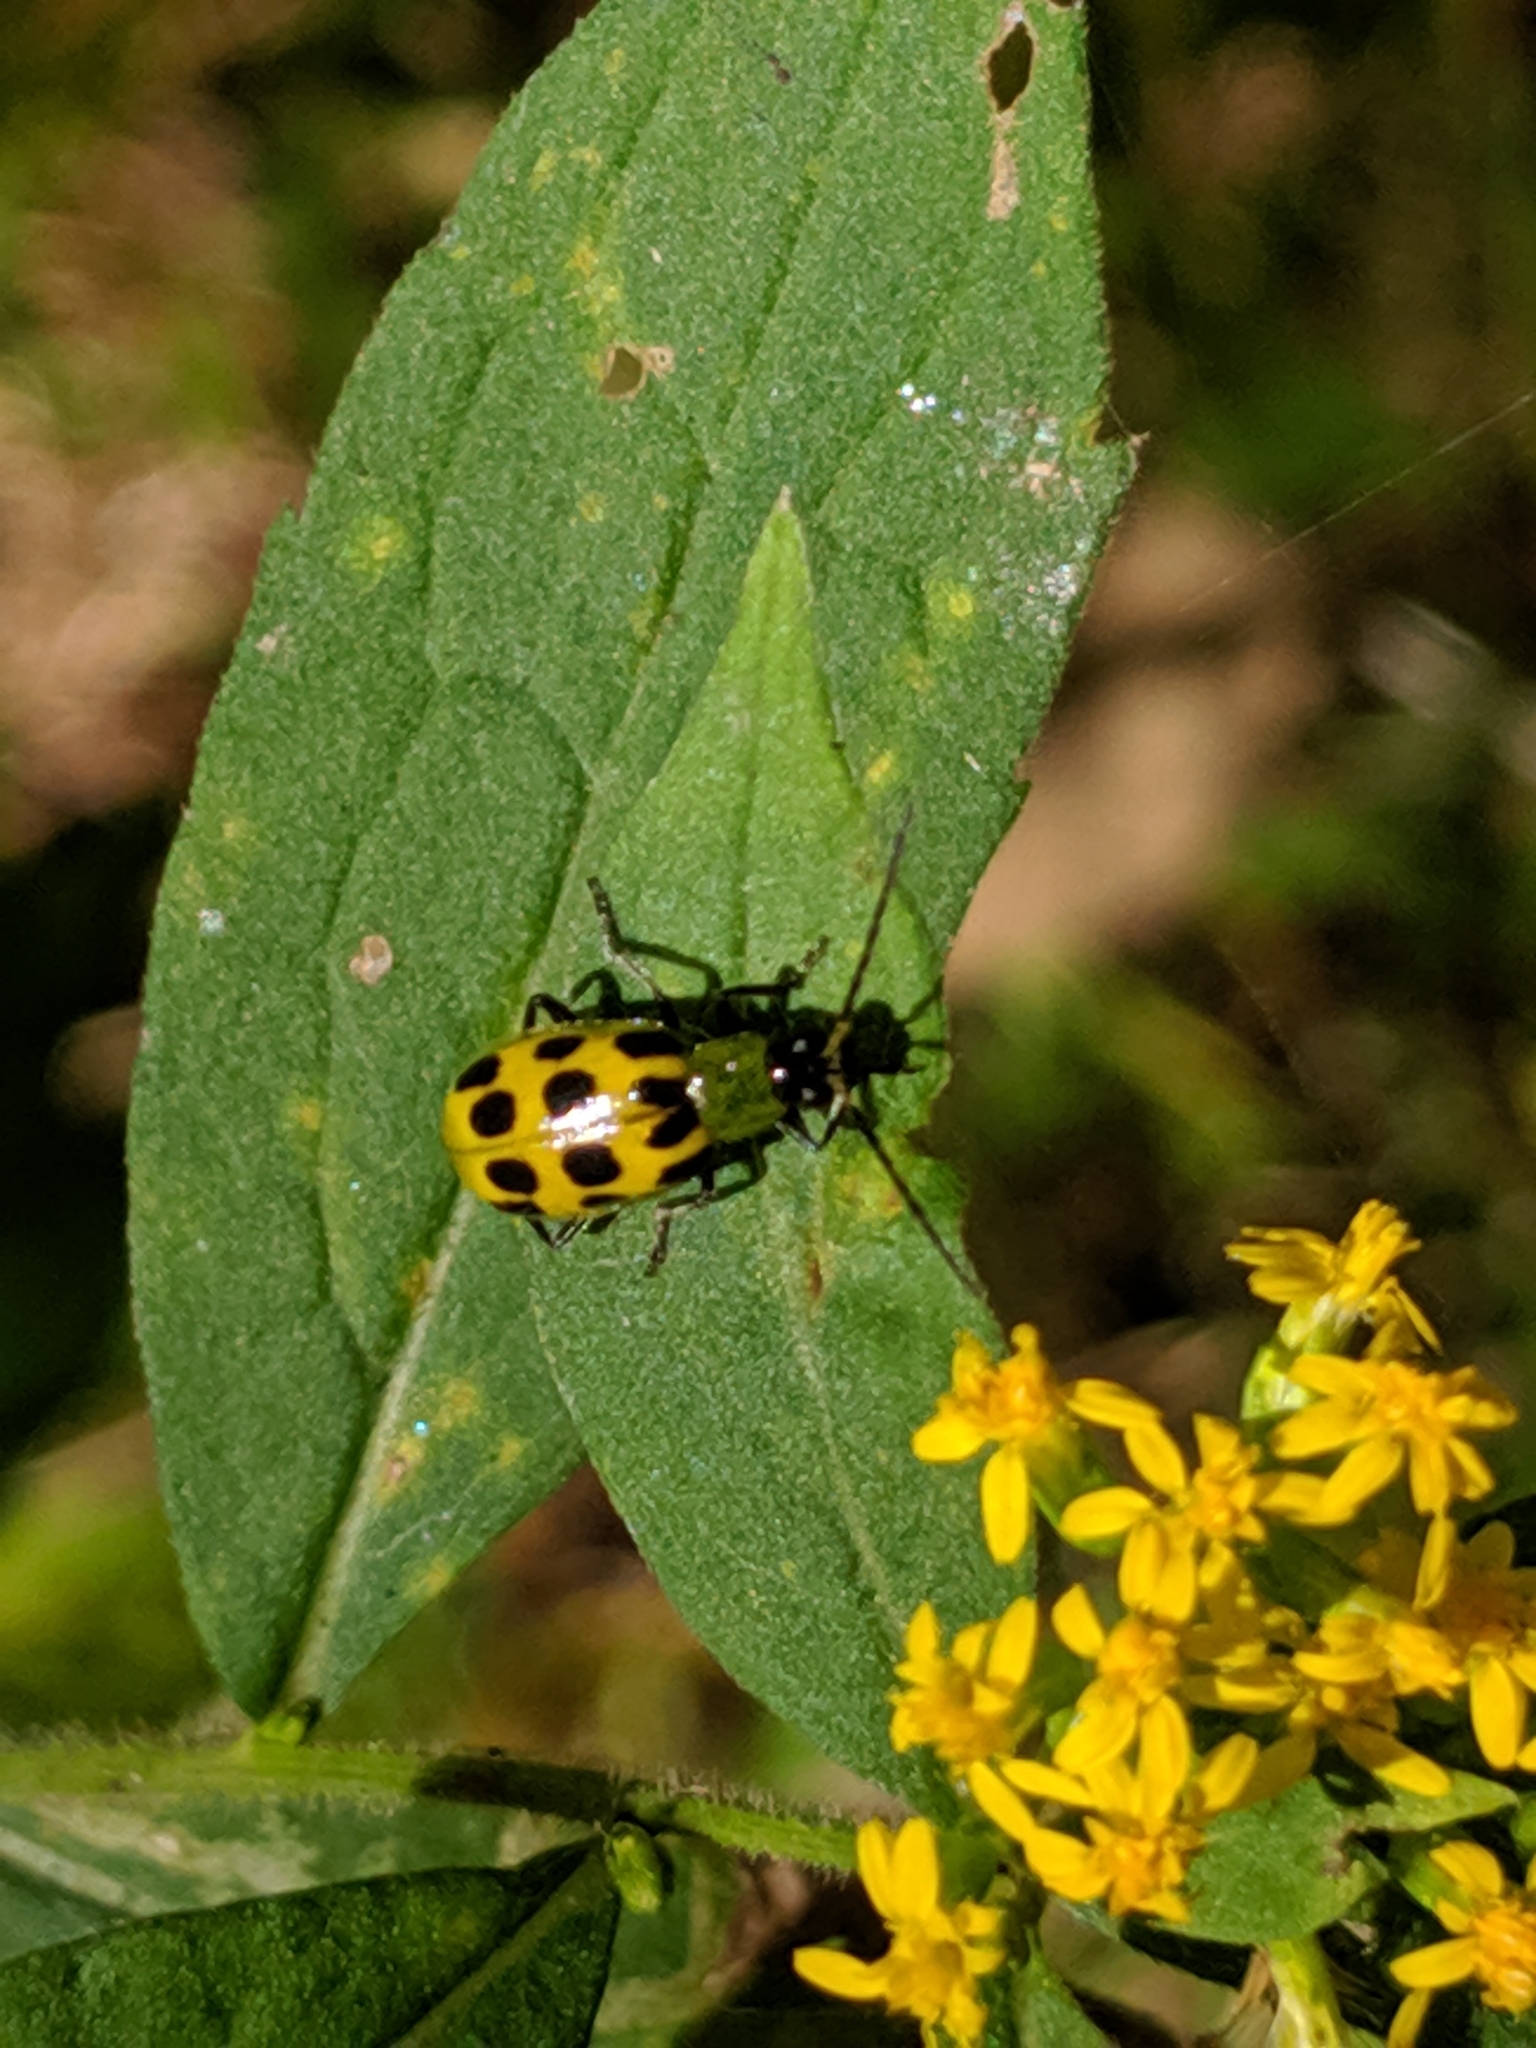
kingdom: Animalia
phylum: Arthropoda
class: Insecta
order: Coleoptera
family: Chrysomelidae
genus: Diabrotica
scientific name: Diabrotica undecimpunctata
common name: Spotted cucumber beetle
